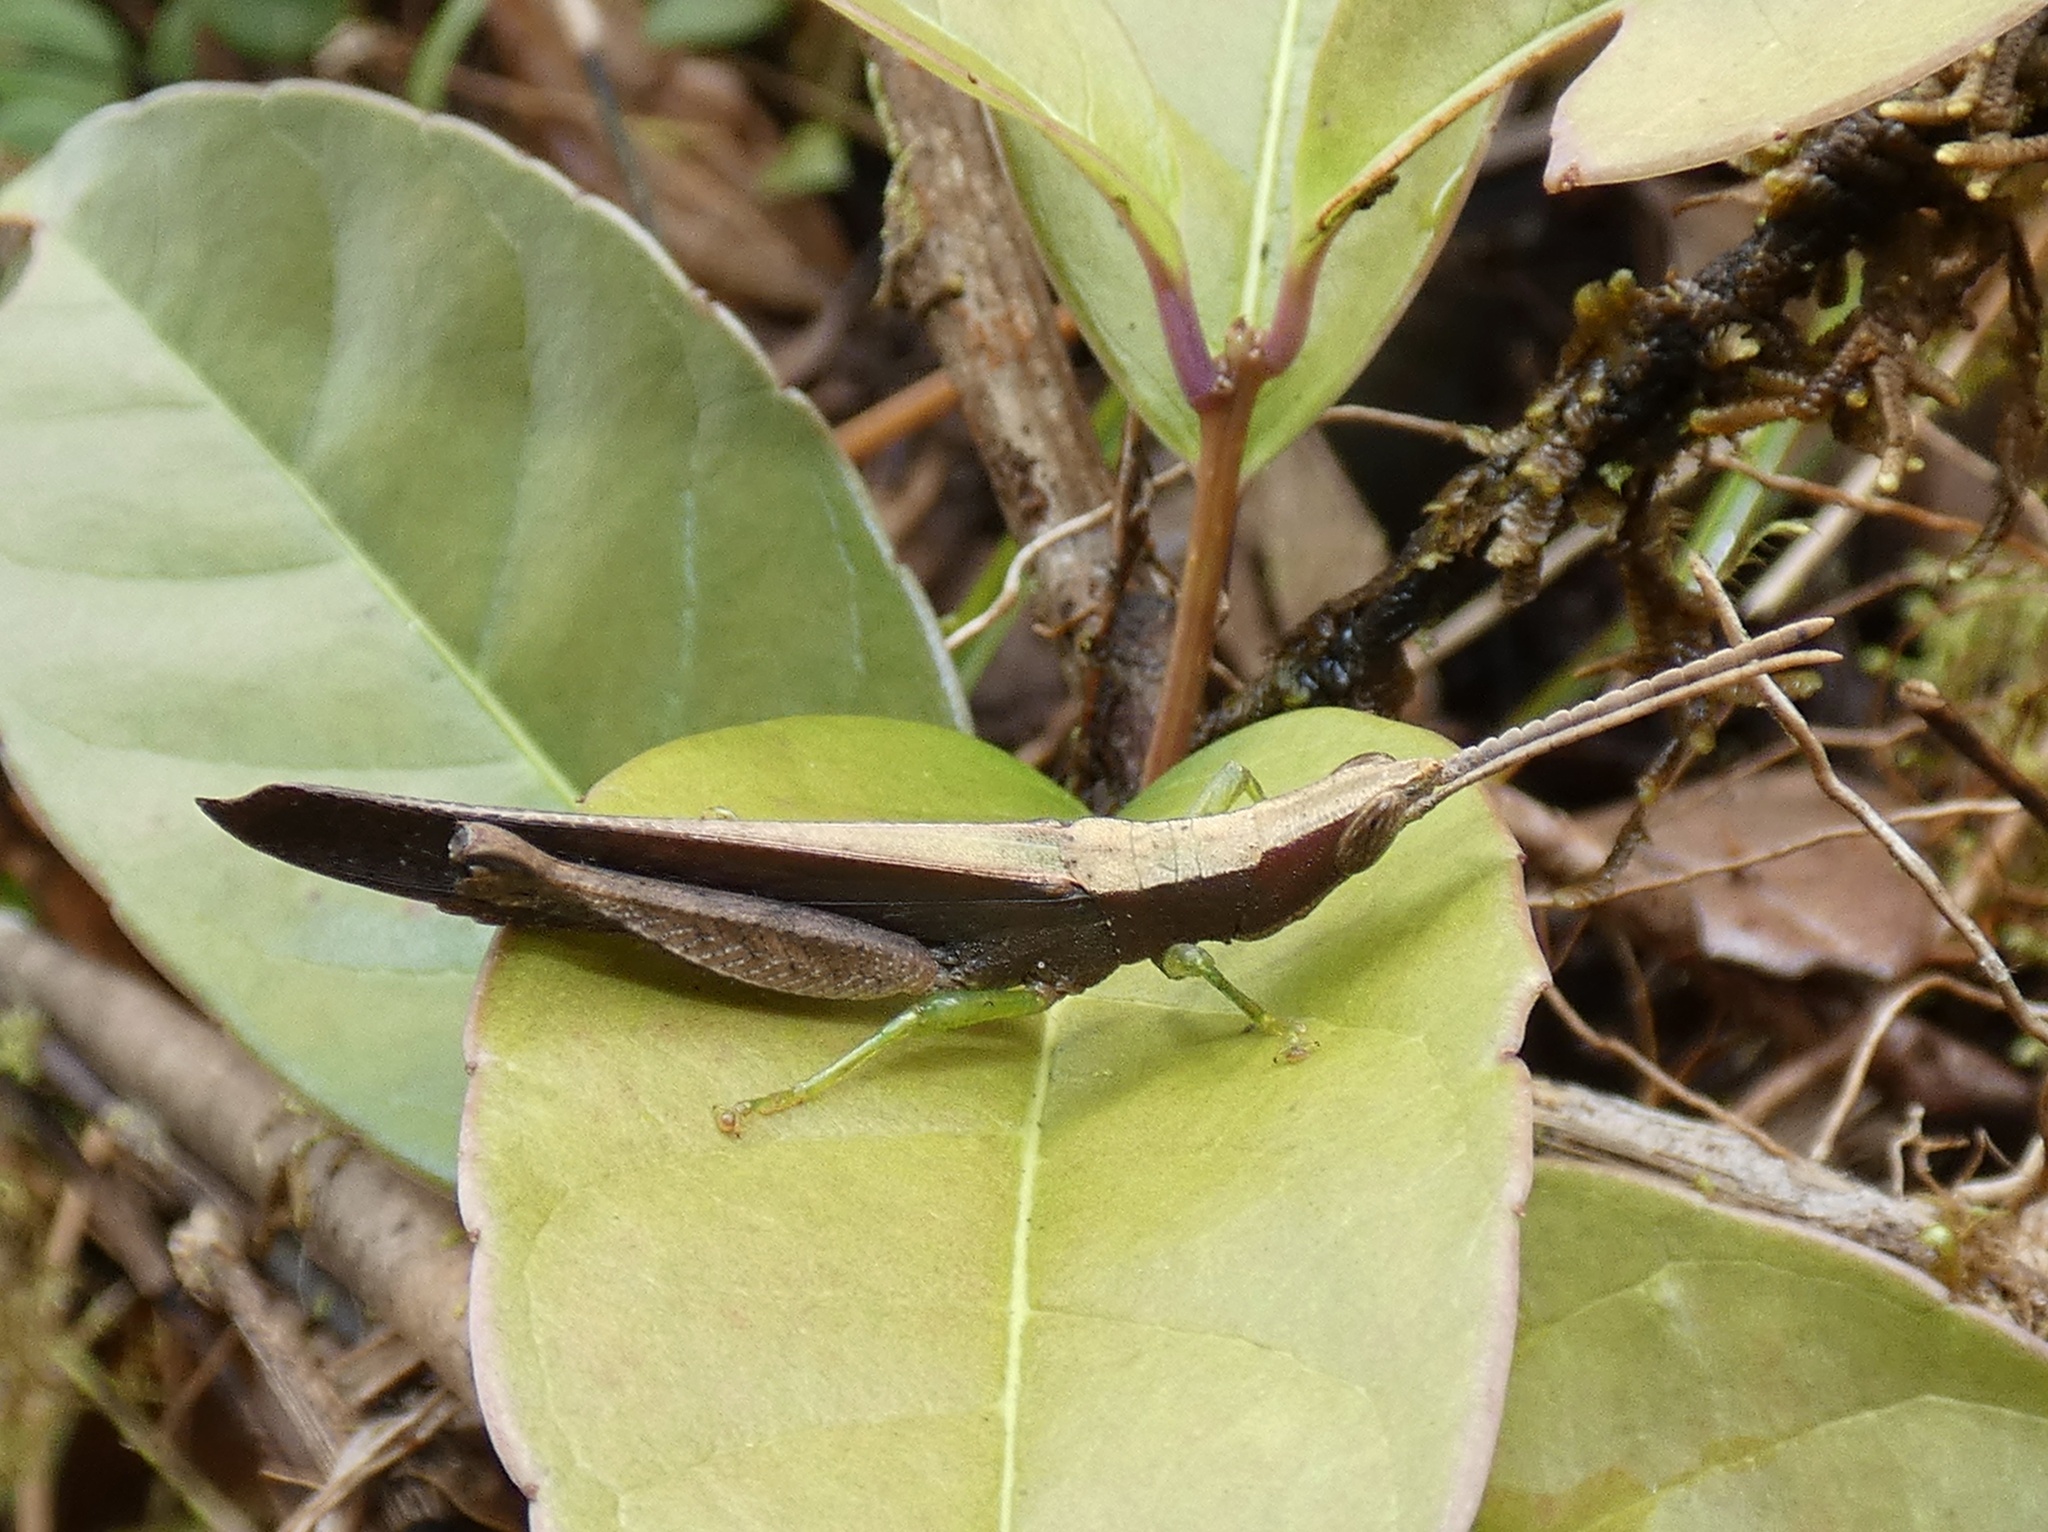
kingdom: Animalia
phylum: Arthropoda
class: Insecta
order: Orthoptera
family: Acrididae
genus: Achurum
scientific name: Achurum sumichrasti
